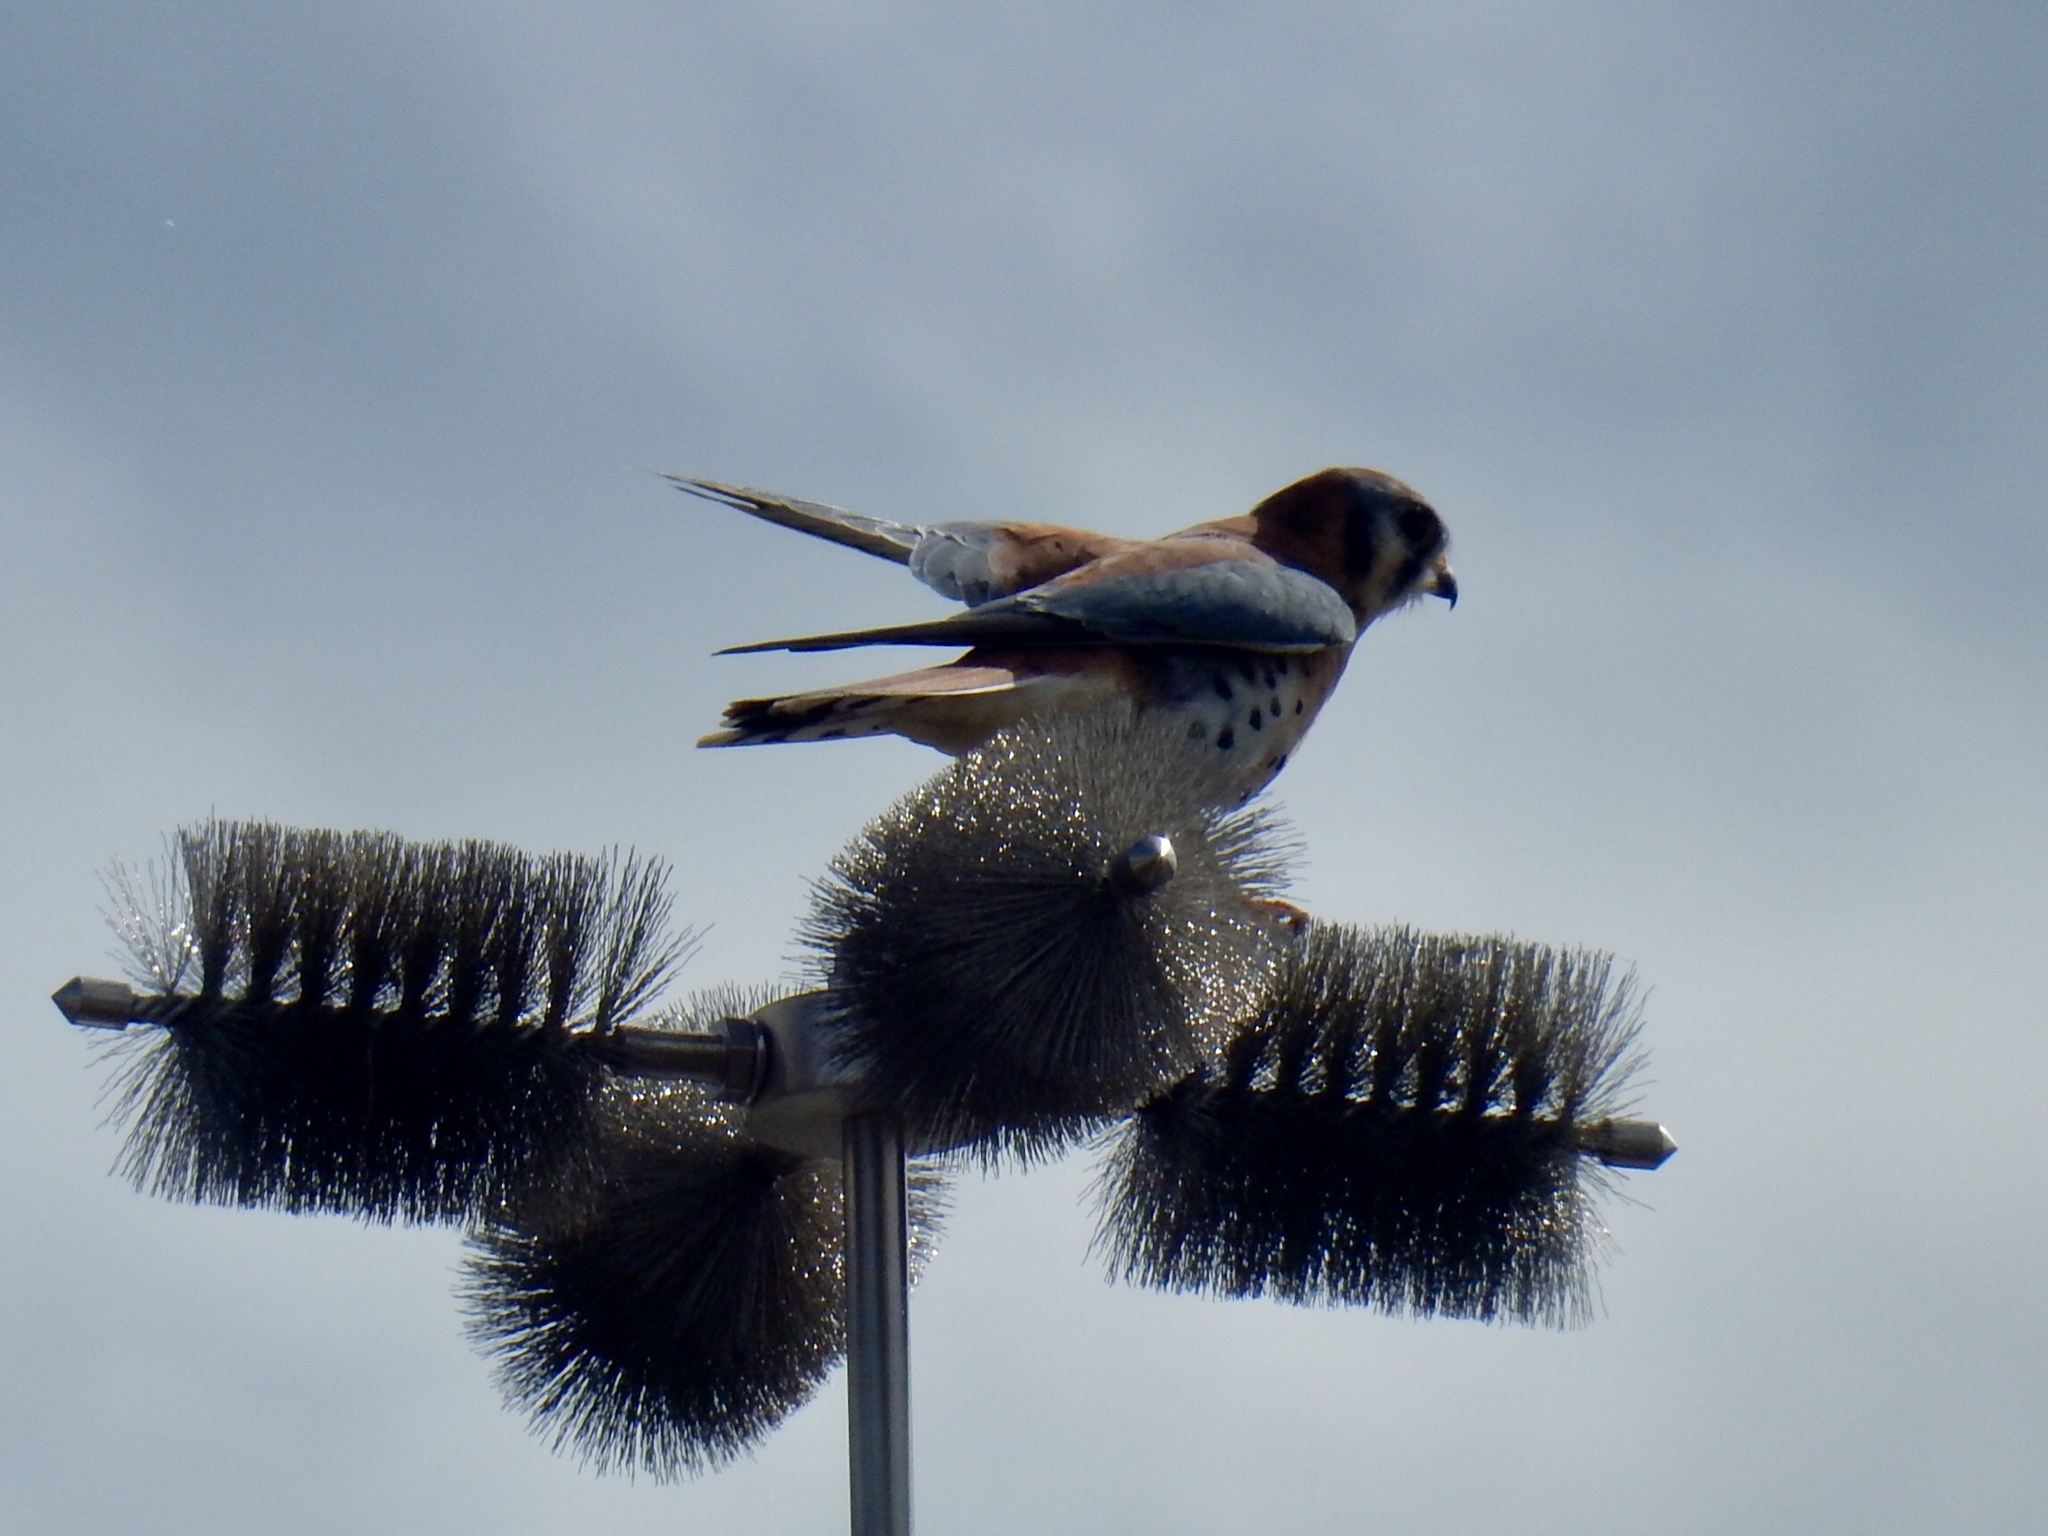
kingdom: Animalia
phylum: Chordata
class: Aves
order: Falconiformes
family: Falconidae
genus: Falco
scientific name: Falco sparverius
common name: American kestrel
